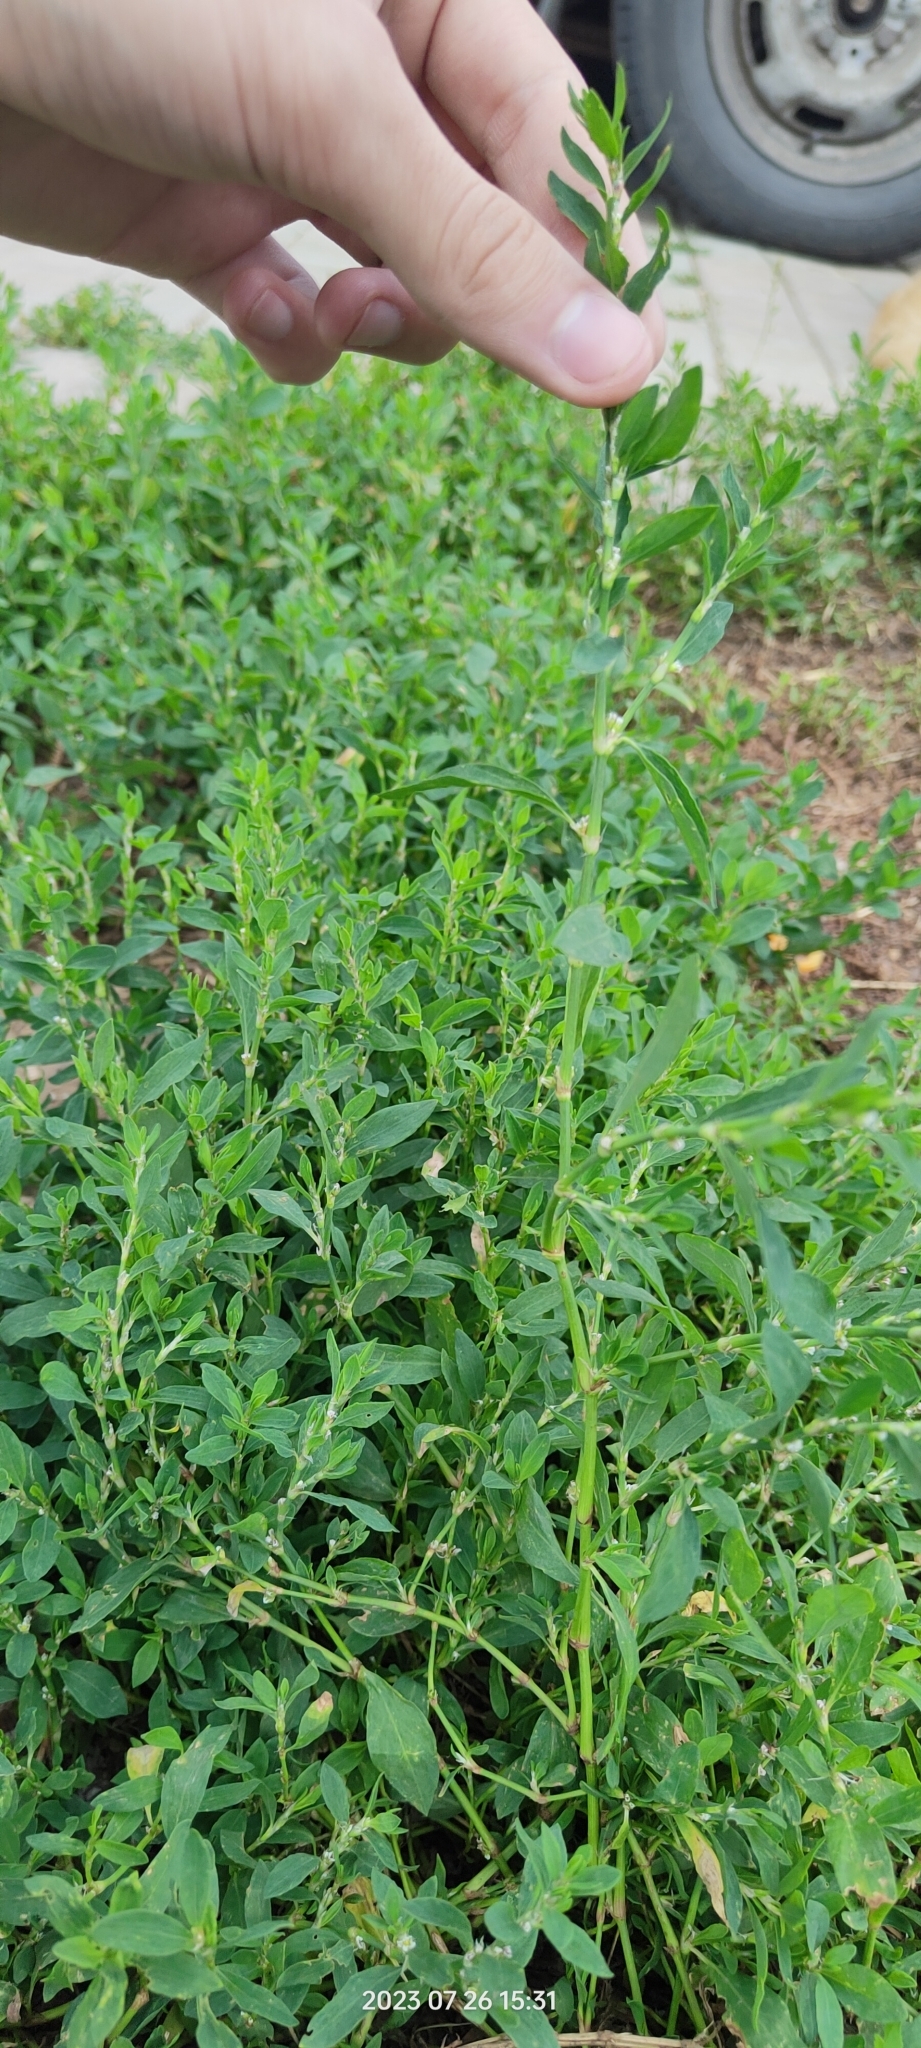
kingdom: Plantae
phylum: Tracheophyta
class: Magnoliopsida
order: Caryophyllales
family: Polygonaceae
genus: Polygonum
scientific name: Polygonum
